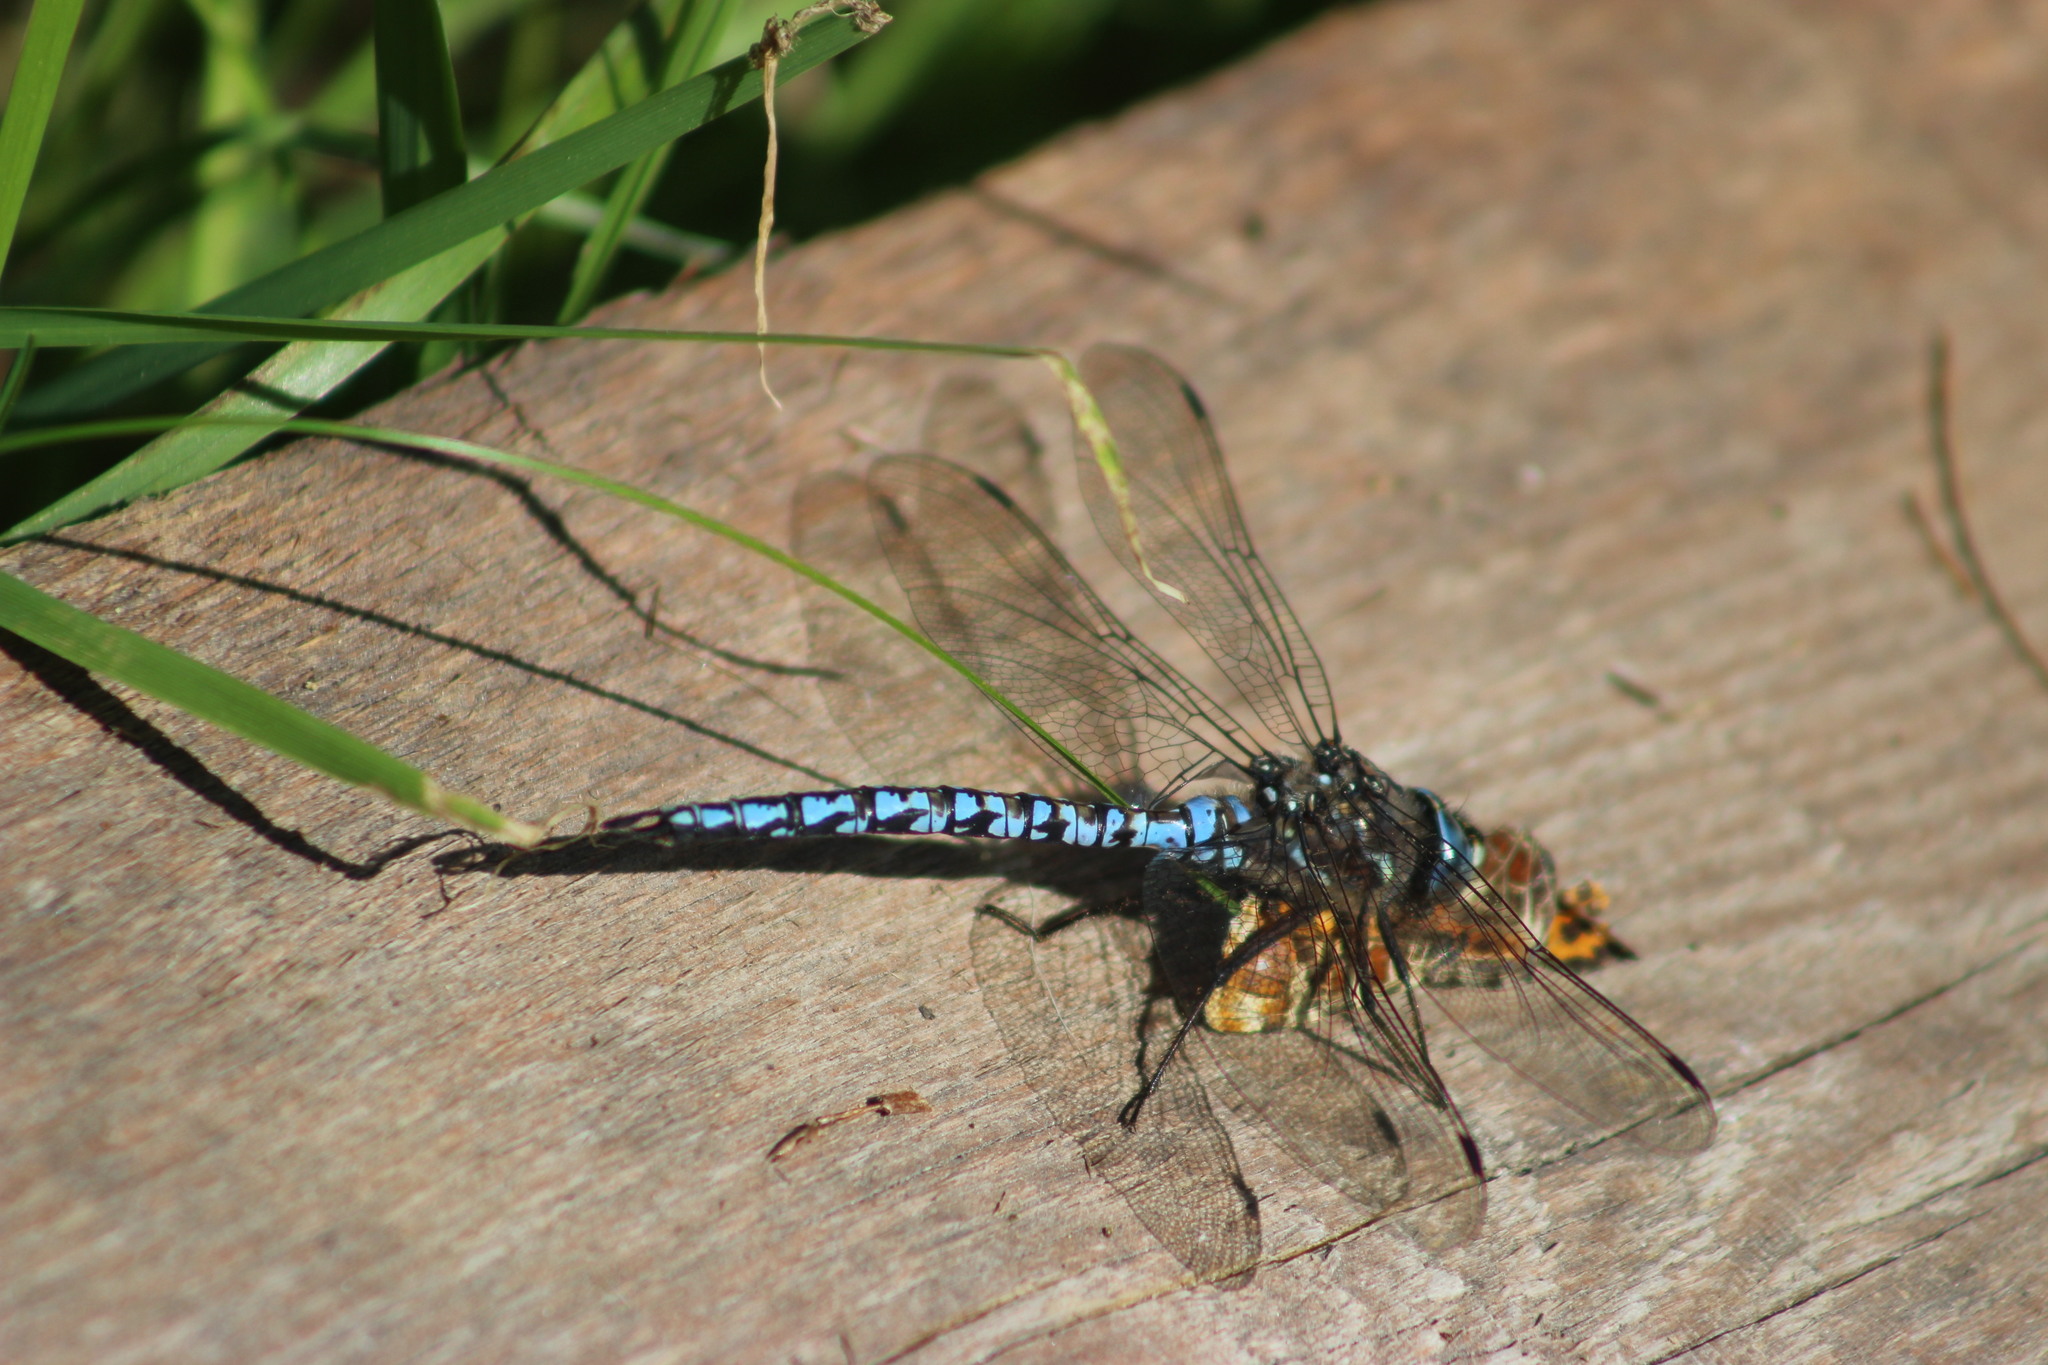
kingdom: Animalia
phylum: Arthropoda
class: Insecta
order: Odonata
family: Aeshnidae
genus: Aeshna
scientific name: Aeshna caerulea
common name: Azure hawker
